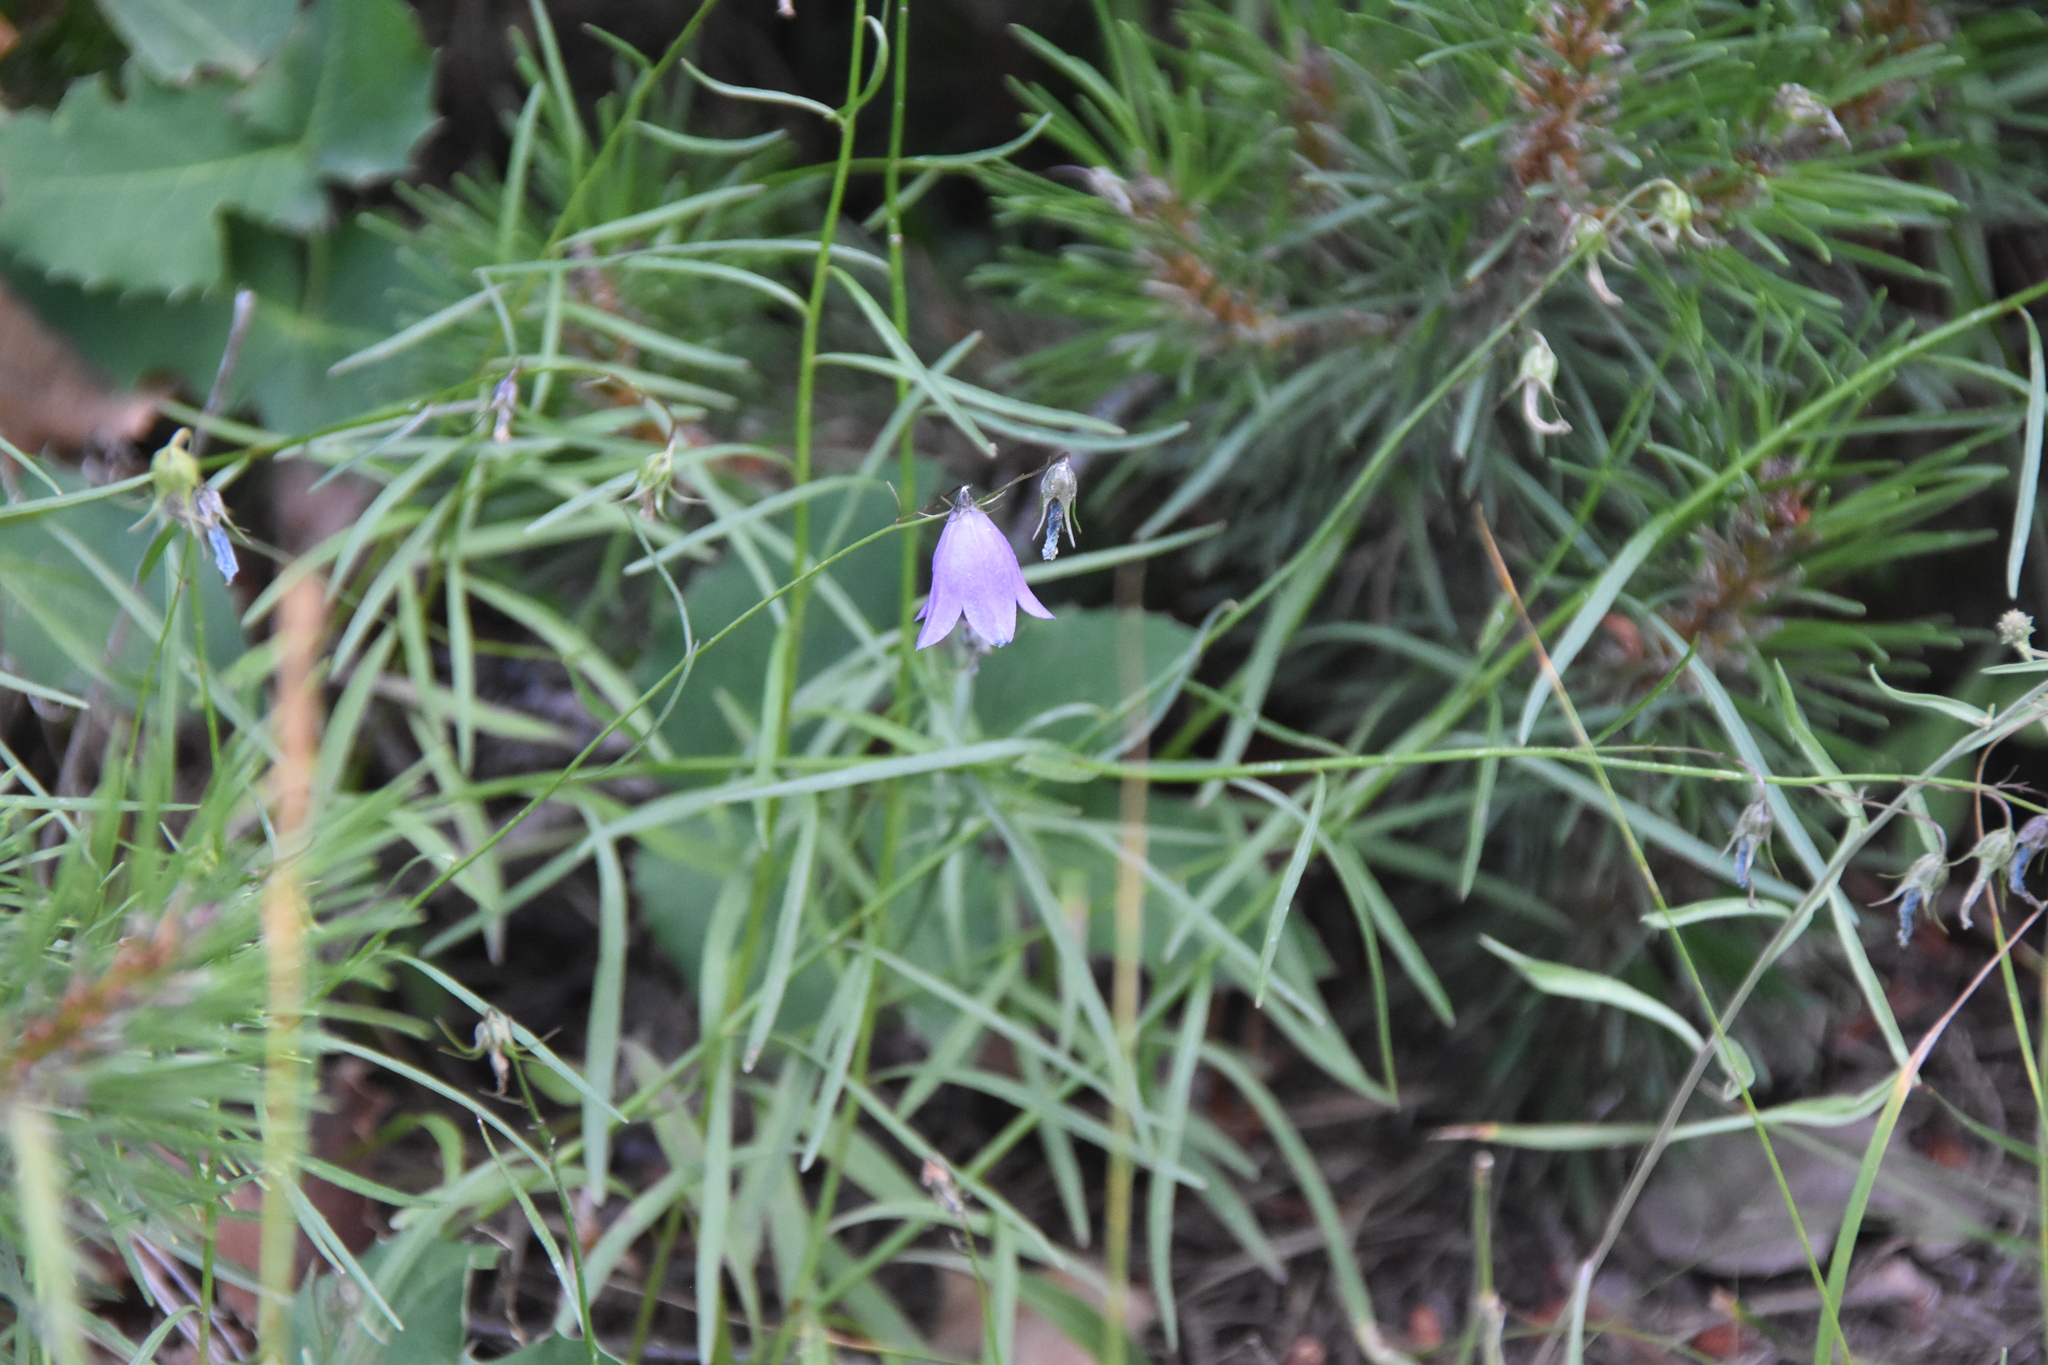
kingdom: Plantae
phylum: Tracheophyta
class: Magnoliopsida
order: Asterales
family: Campanulaceae
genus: Campanula
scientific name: Campanula
